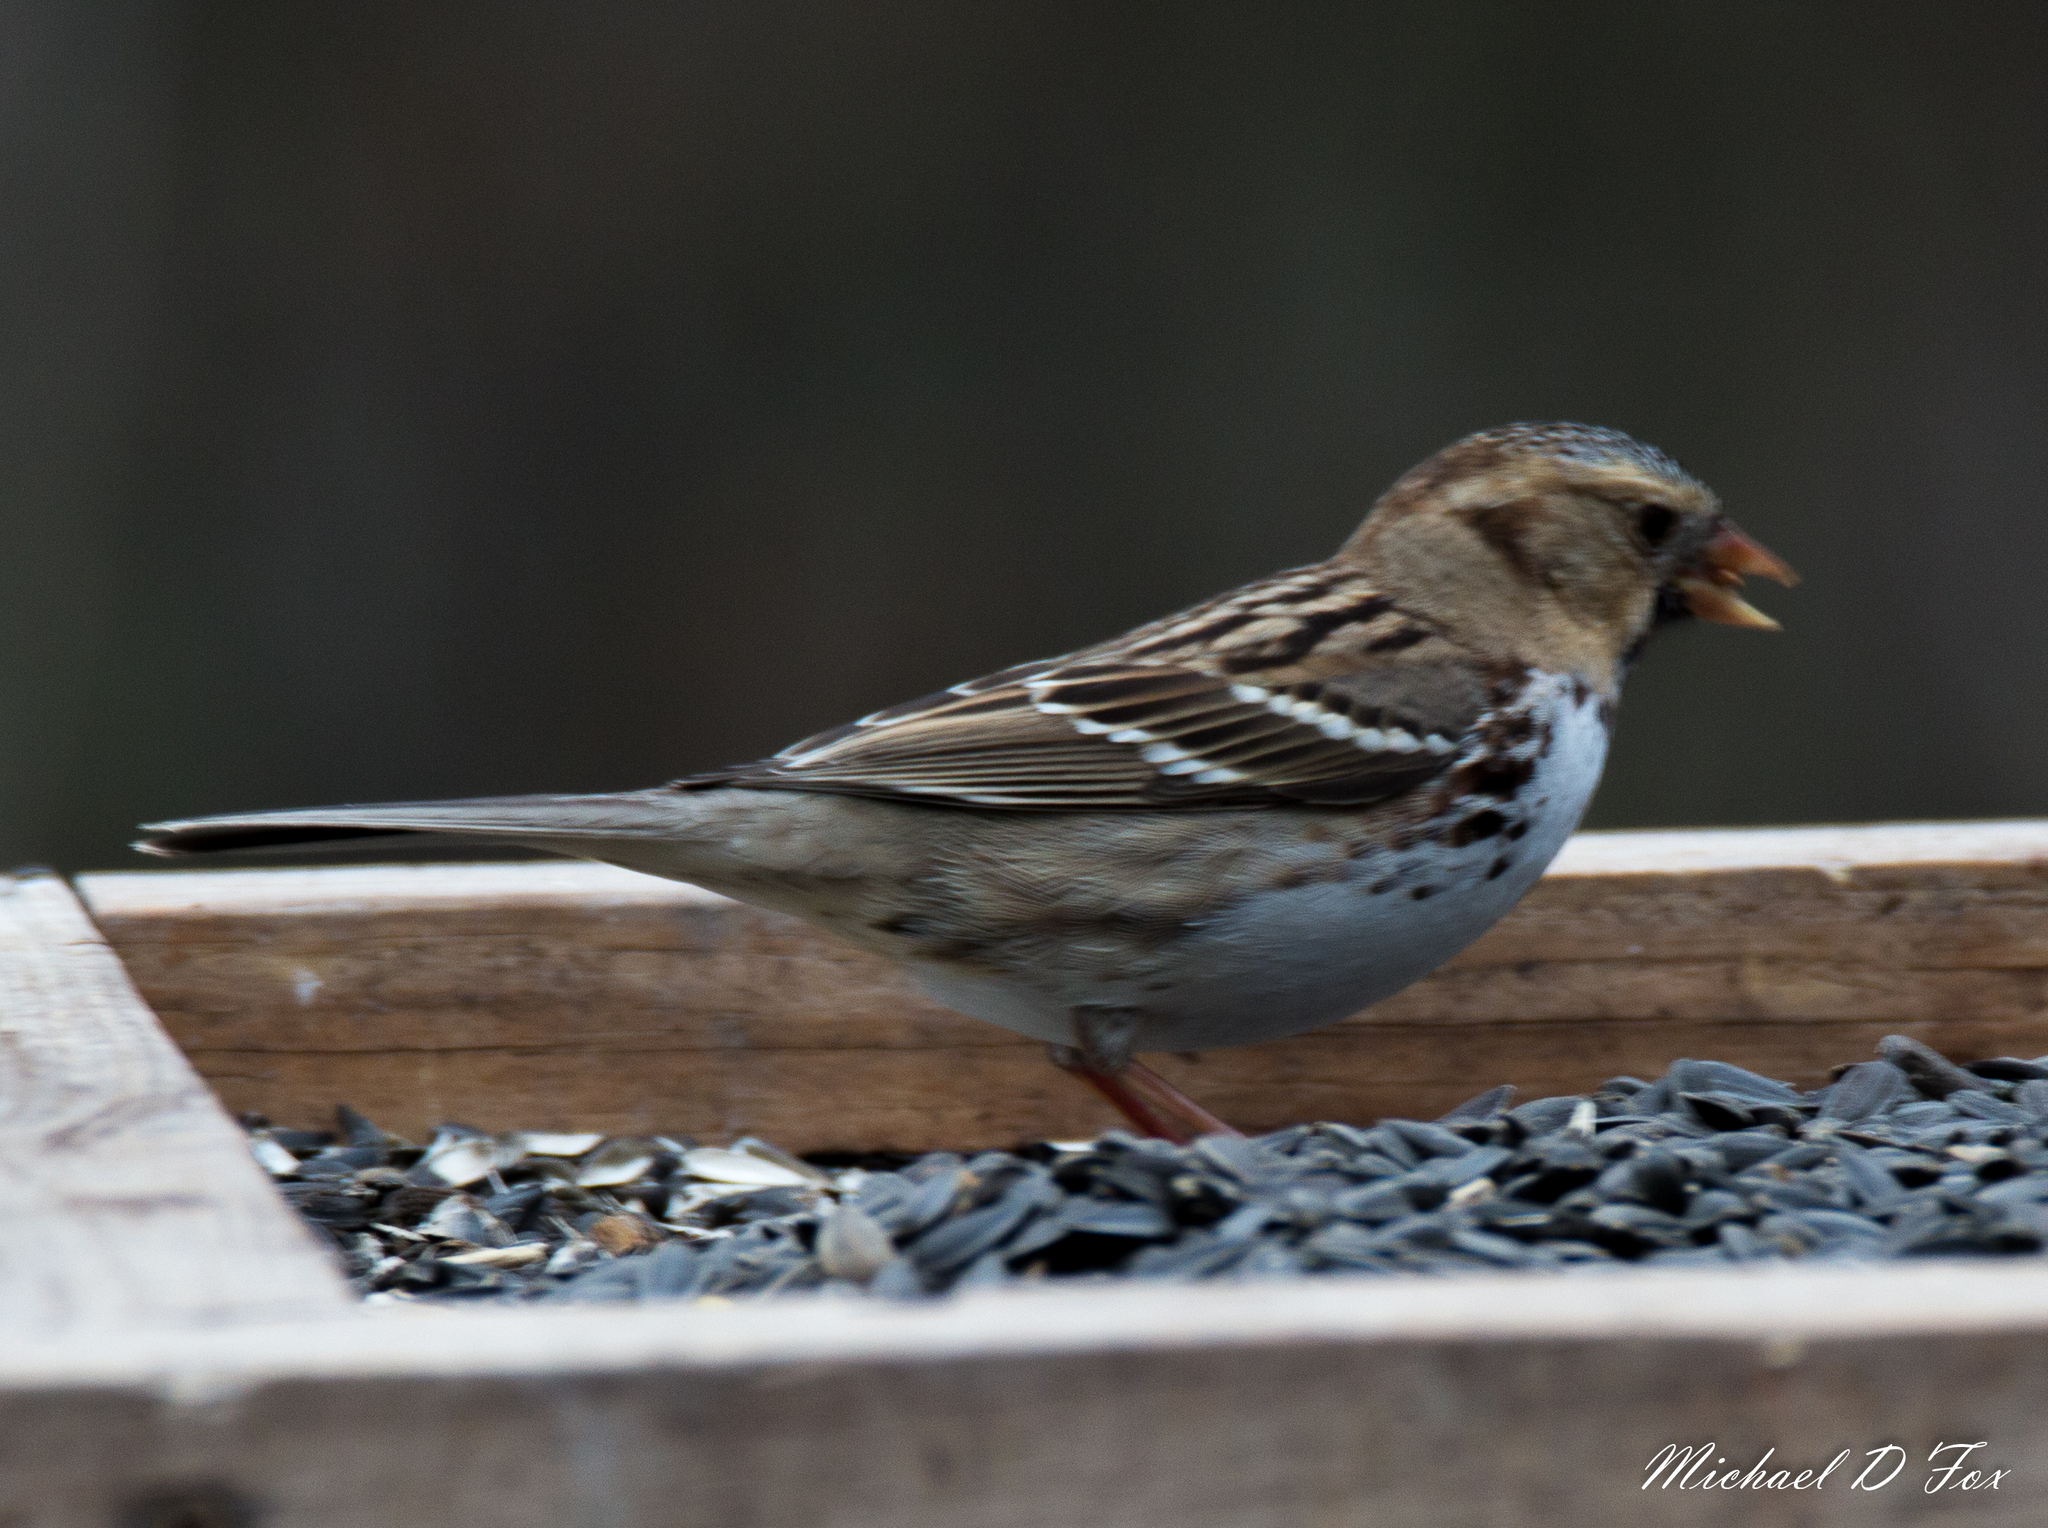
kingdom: Animalia
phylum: Chordata
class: Aves
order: Passeriformes
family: Passerellidae
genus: Zonotrichia
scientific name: Zonotrichia querula
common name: Harris's sparrow
